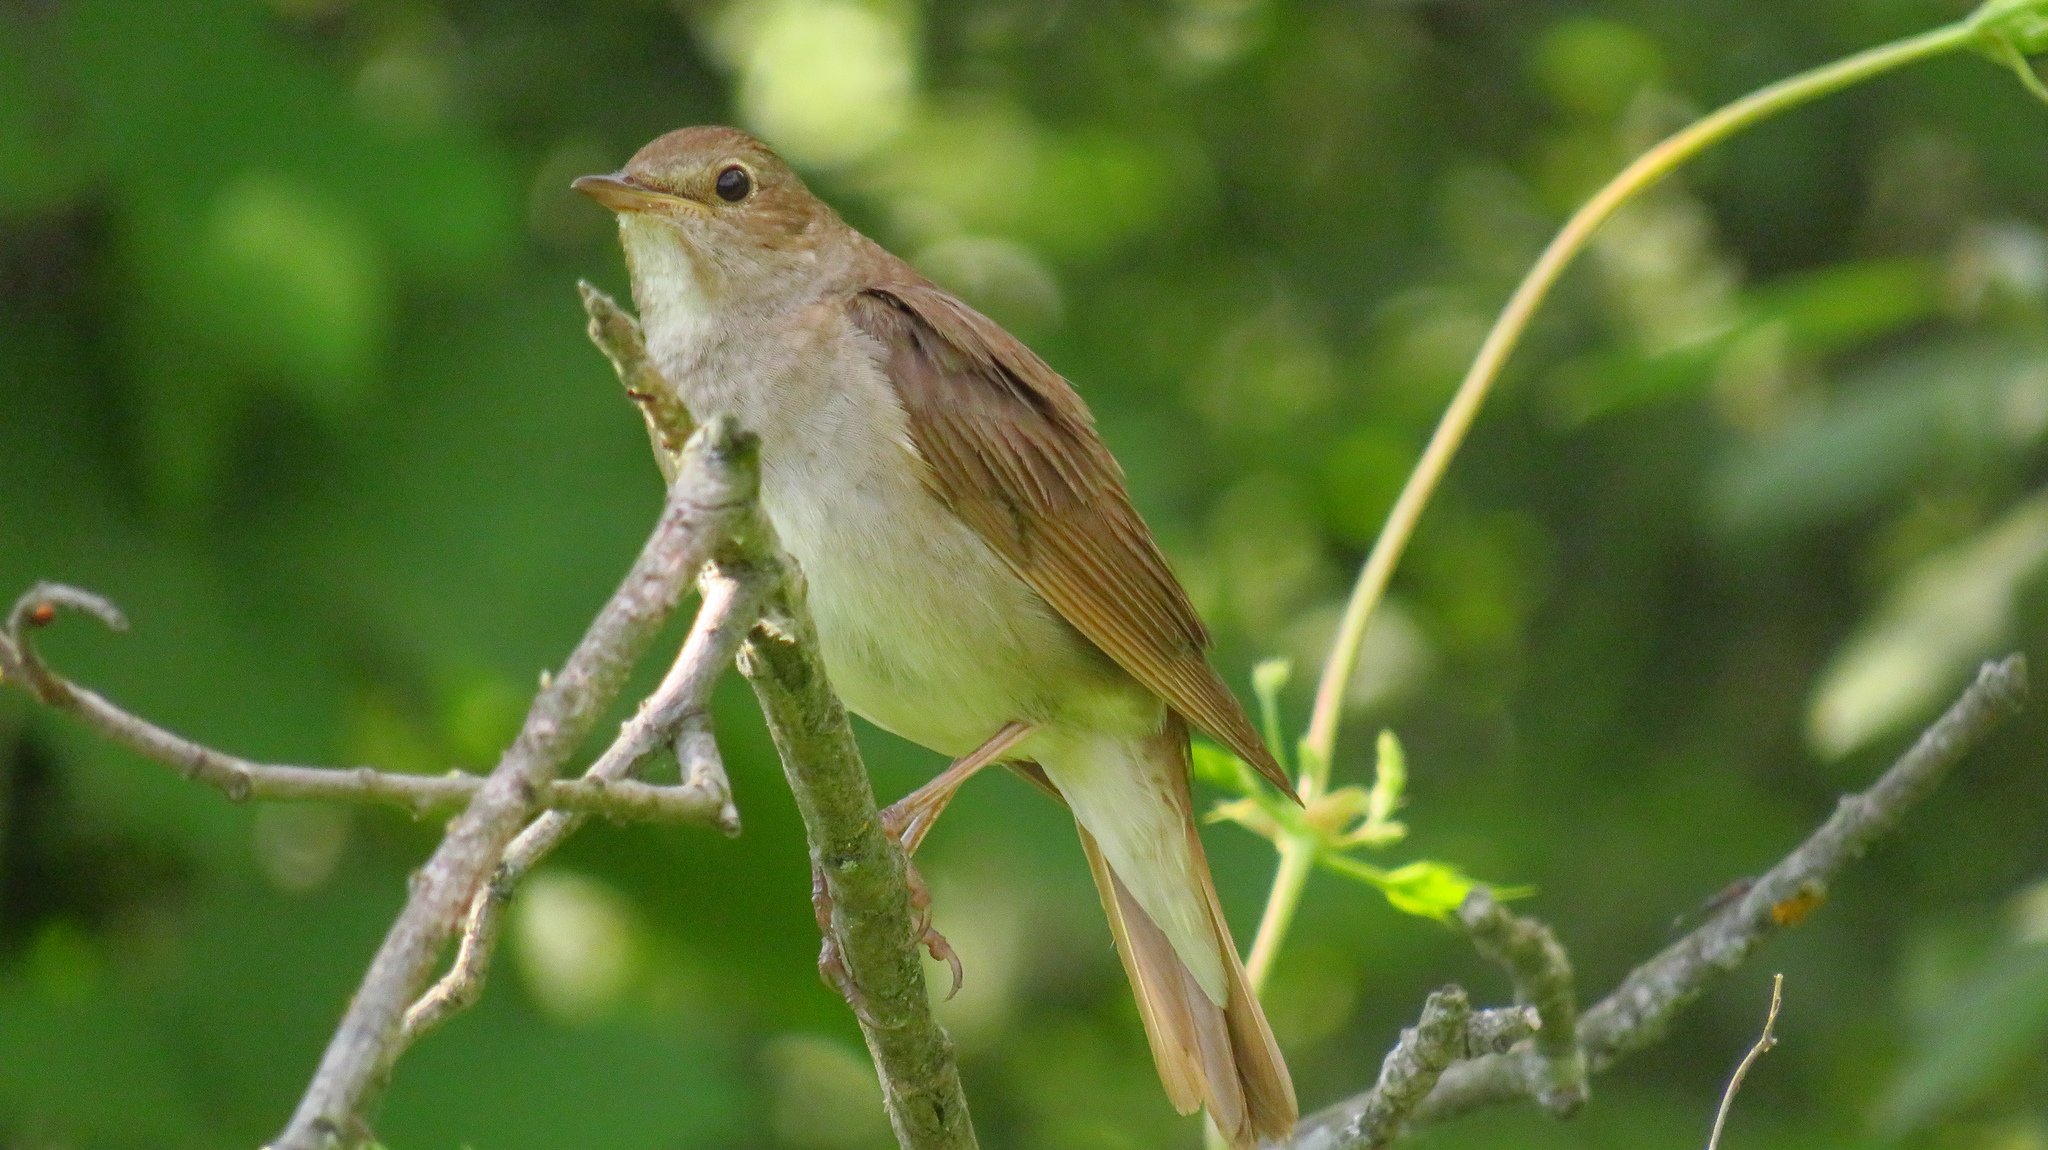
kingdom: Animalia
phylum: Chordata
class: Aves
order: Passeriformes
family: Muscicapidae
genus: Luscinia
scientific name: Luscinia luscinia
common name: Thrush nightingale
